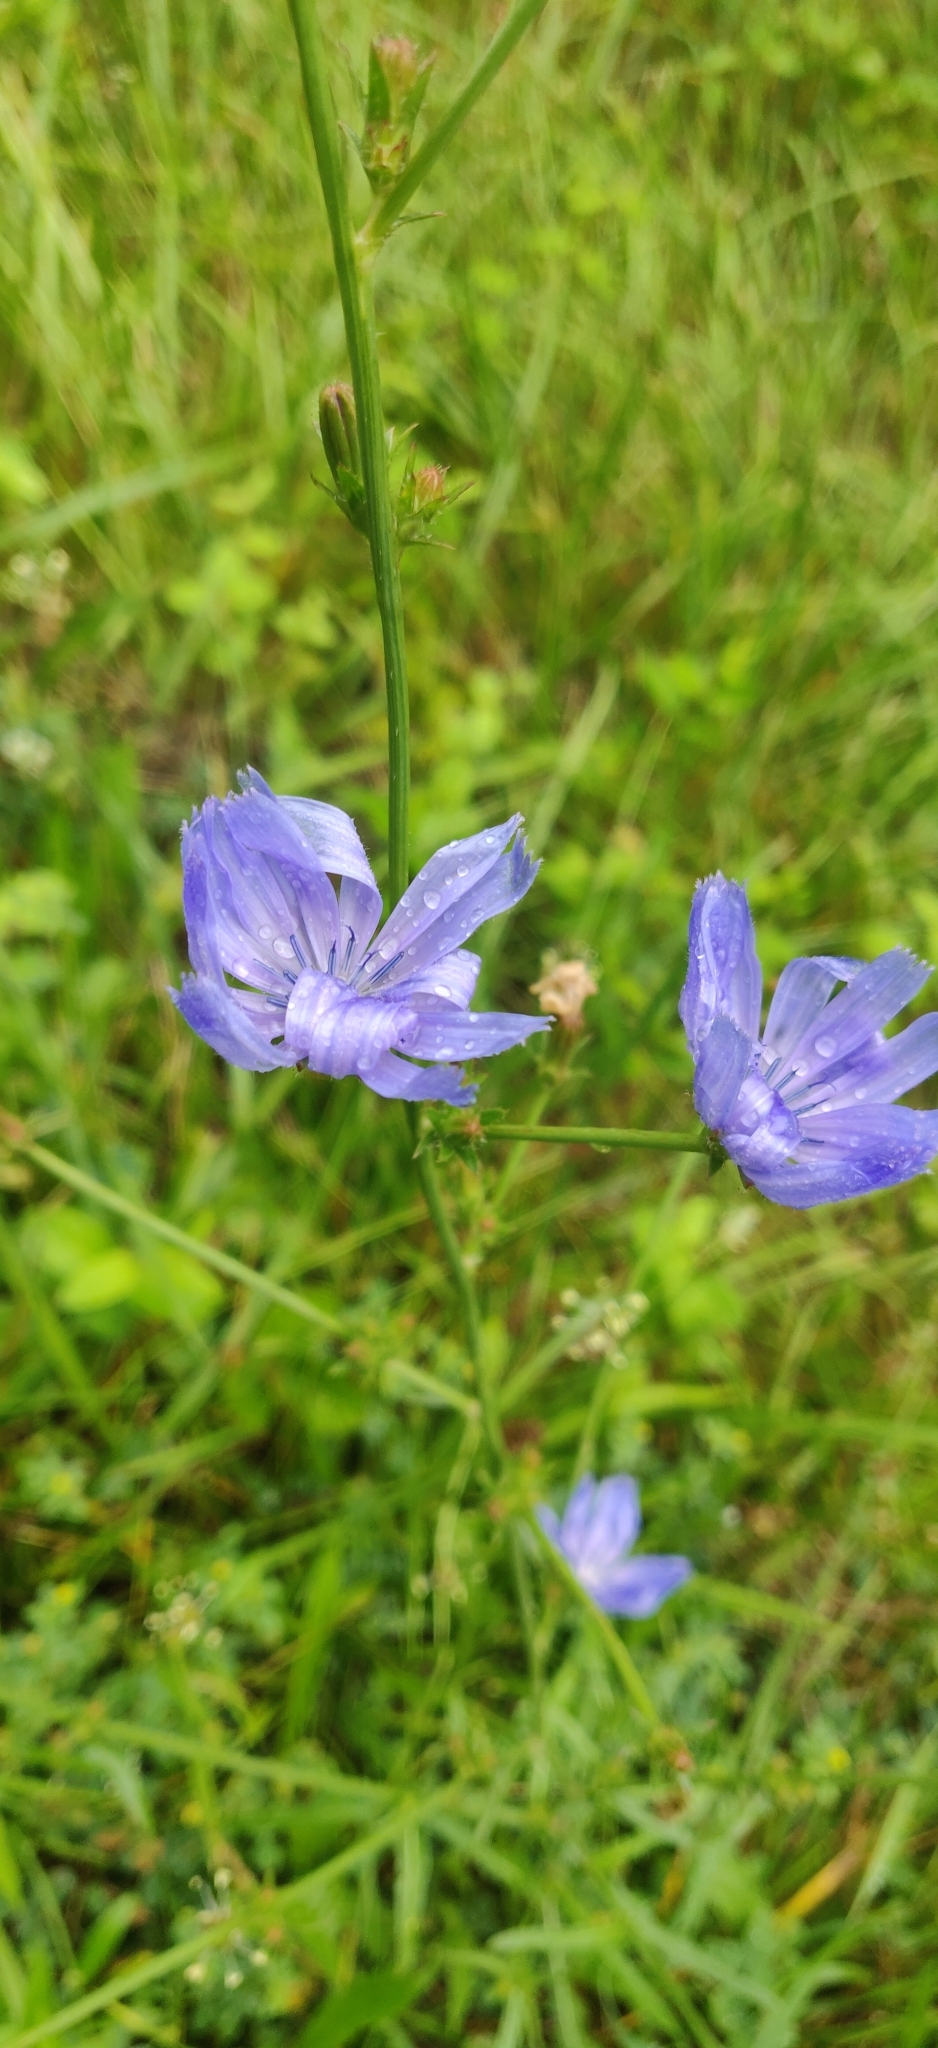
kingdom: Plantae
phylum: Tracheophyta
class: Magnoliopsida
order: Asterales
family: Asteraceae
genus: Cichorium
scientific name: Cichorium intybus
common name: Chicory
